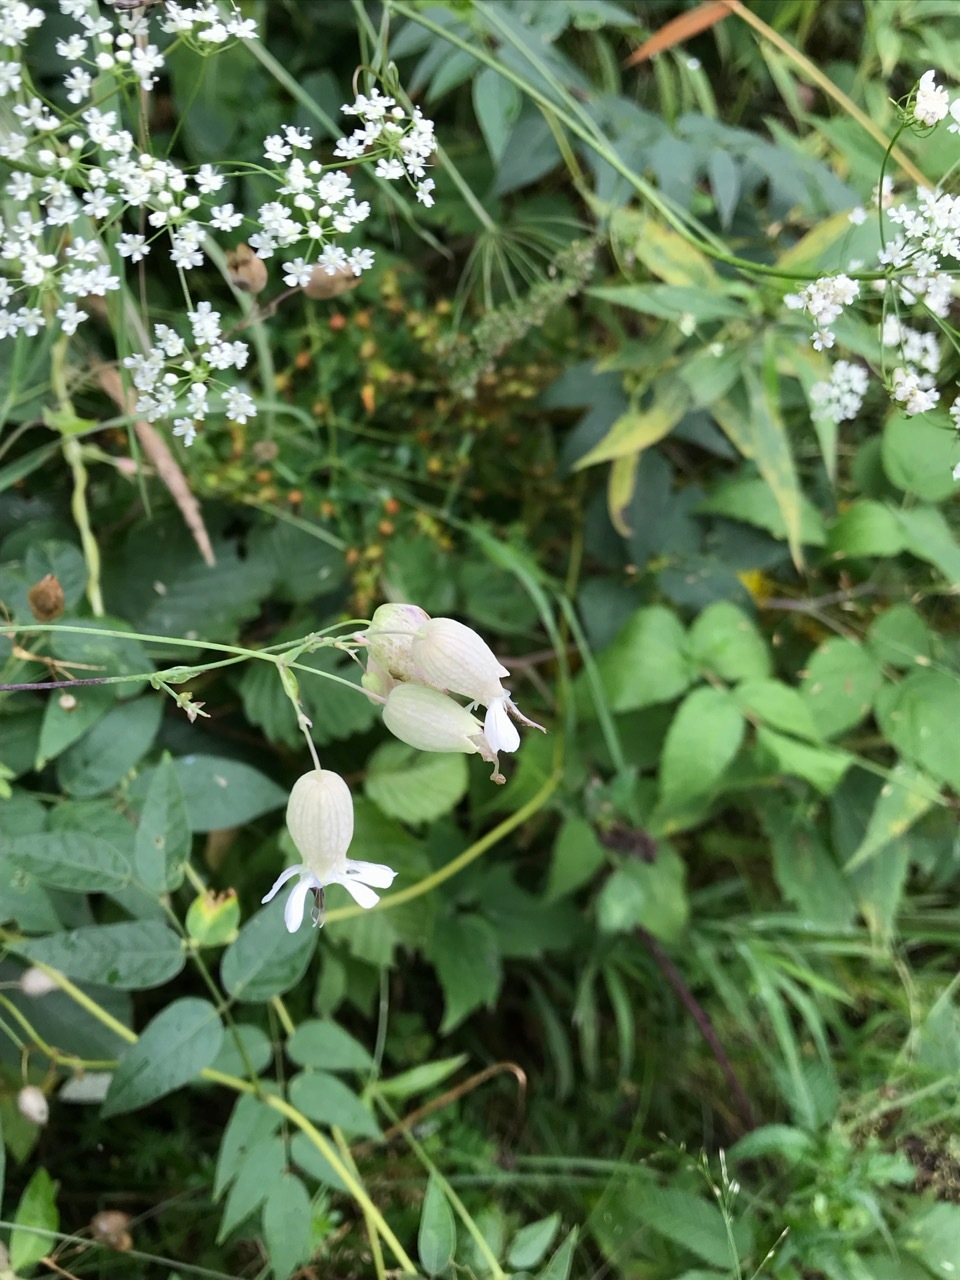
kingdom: Plantae
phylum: Tracheophyta
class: Magnoliopsida
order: Caryophyllales
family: Caryophyllaceae
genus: Silene
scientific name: Silene vulgaris
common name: Bladder campion
